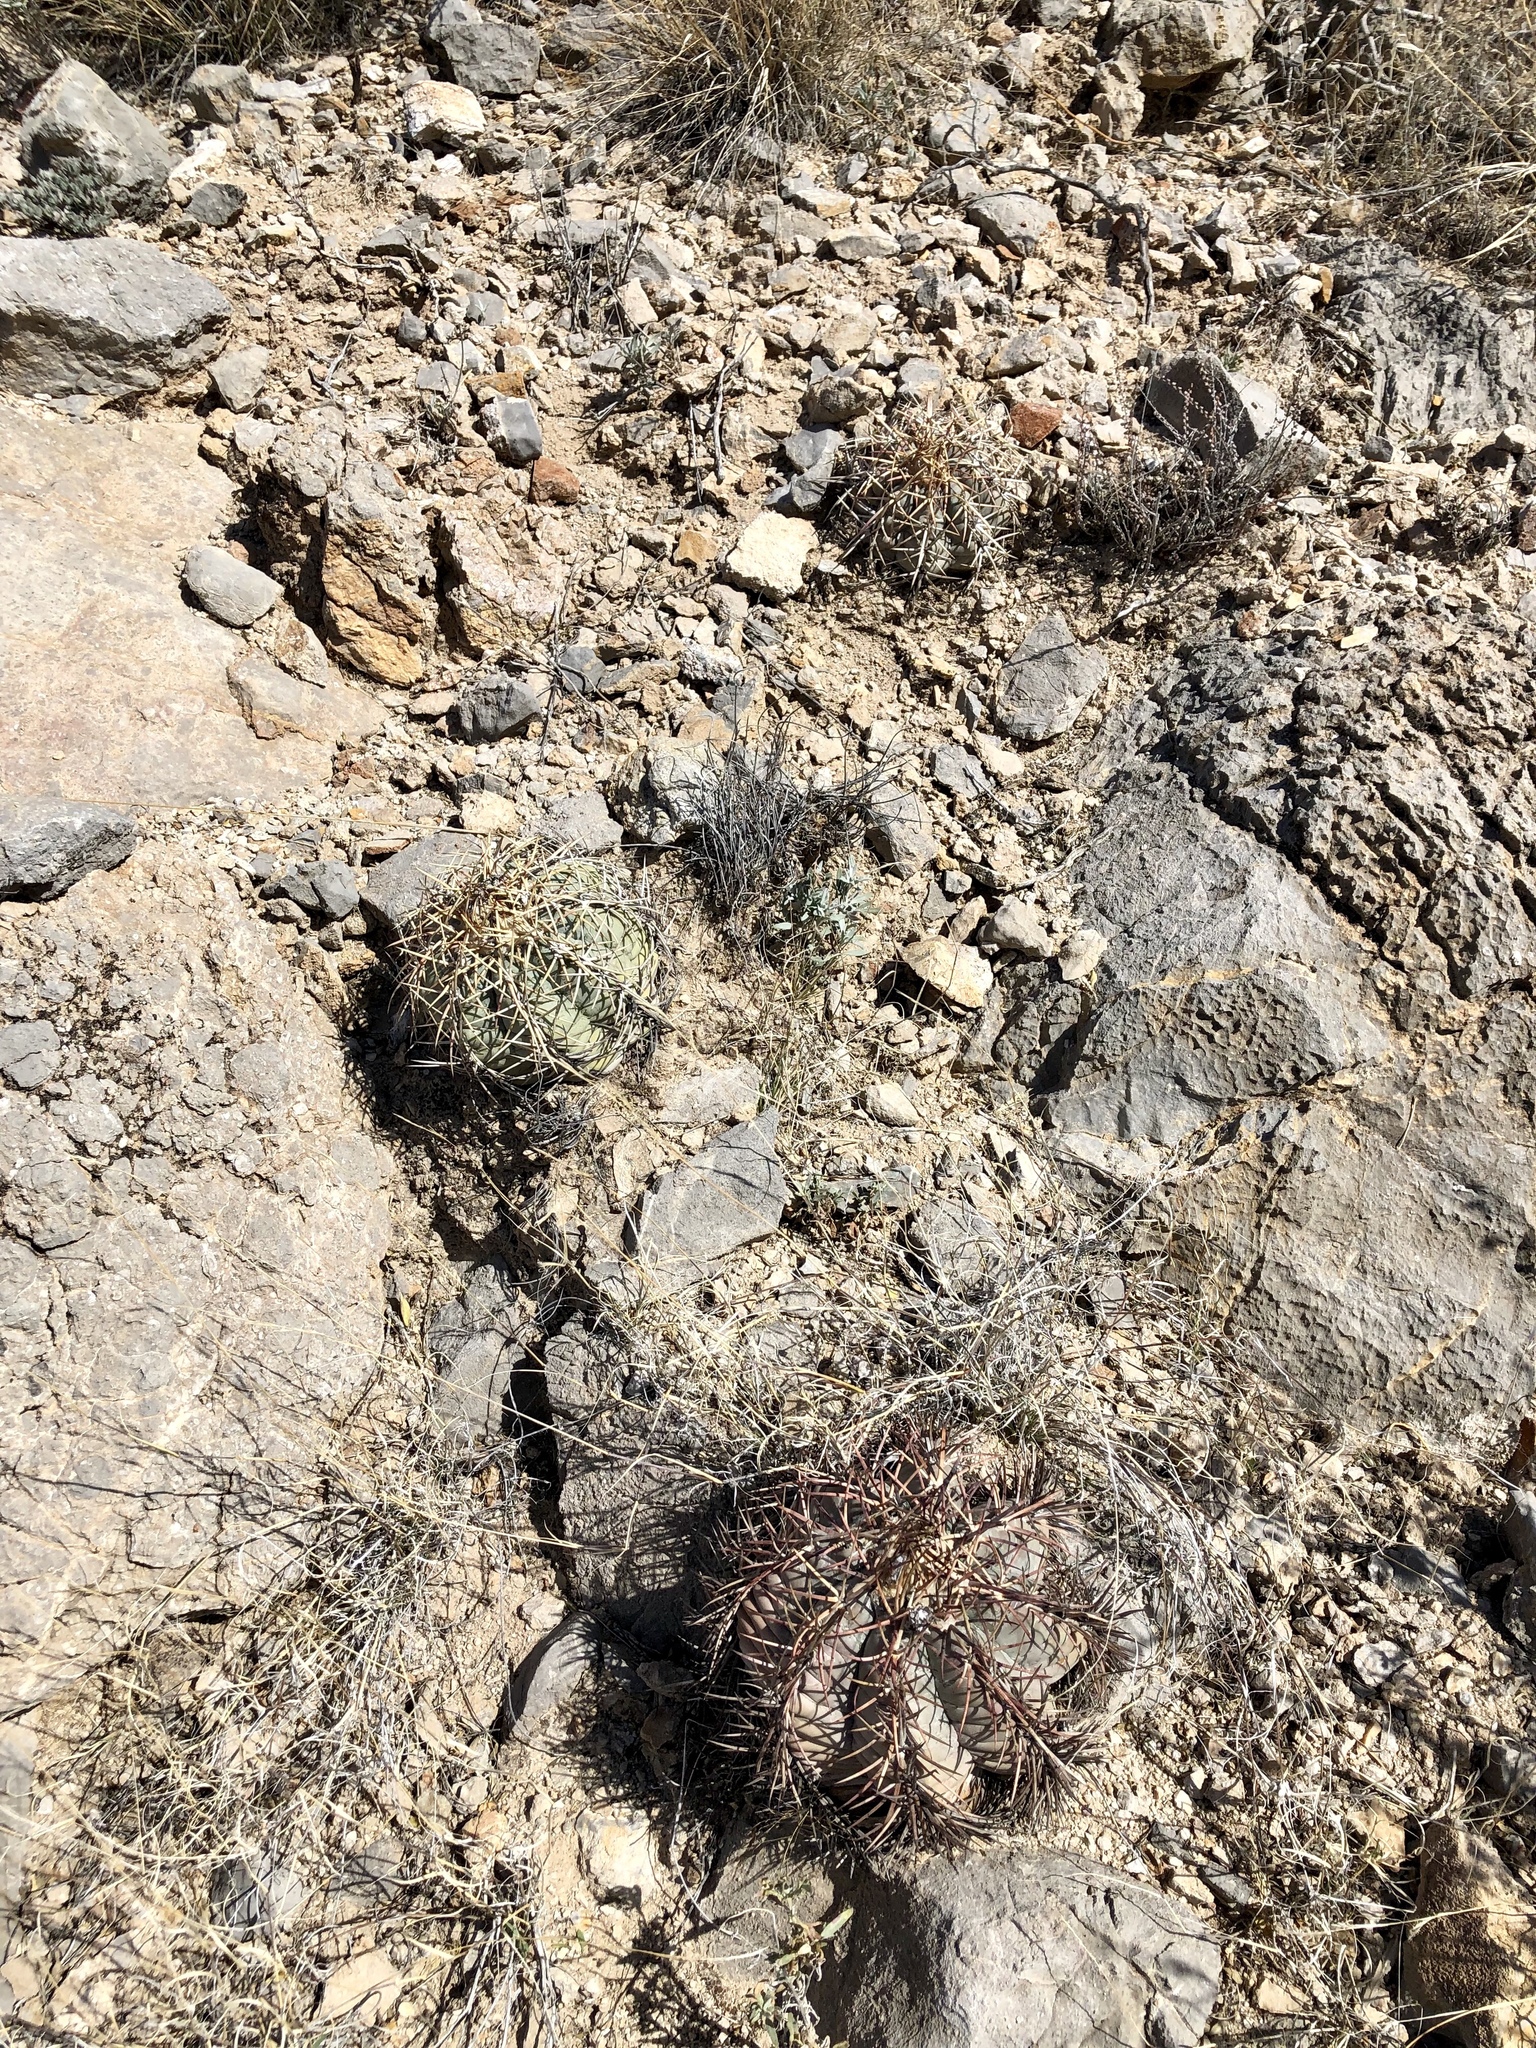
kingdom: Plantae
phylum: Tracheophyta
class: Magnoliopsida
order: Caryophyllales
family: Cactaceae
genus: Echinocactus
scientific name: Echinocactus horizonthalonius
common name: Devilshead
